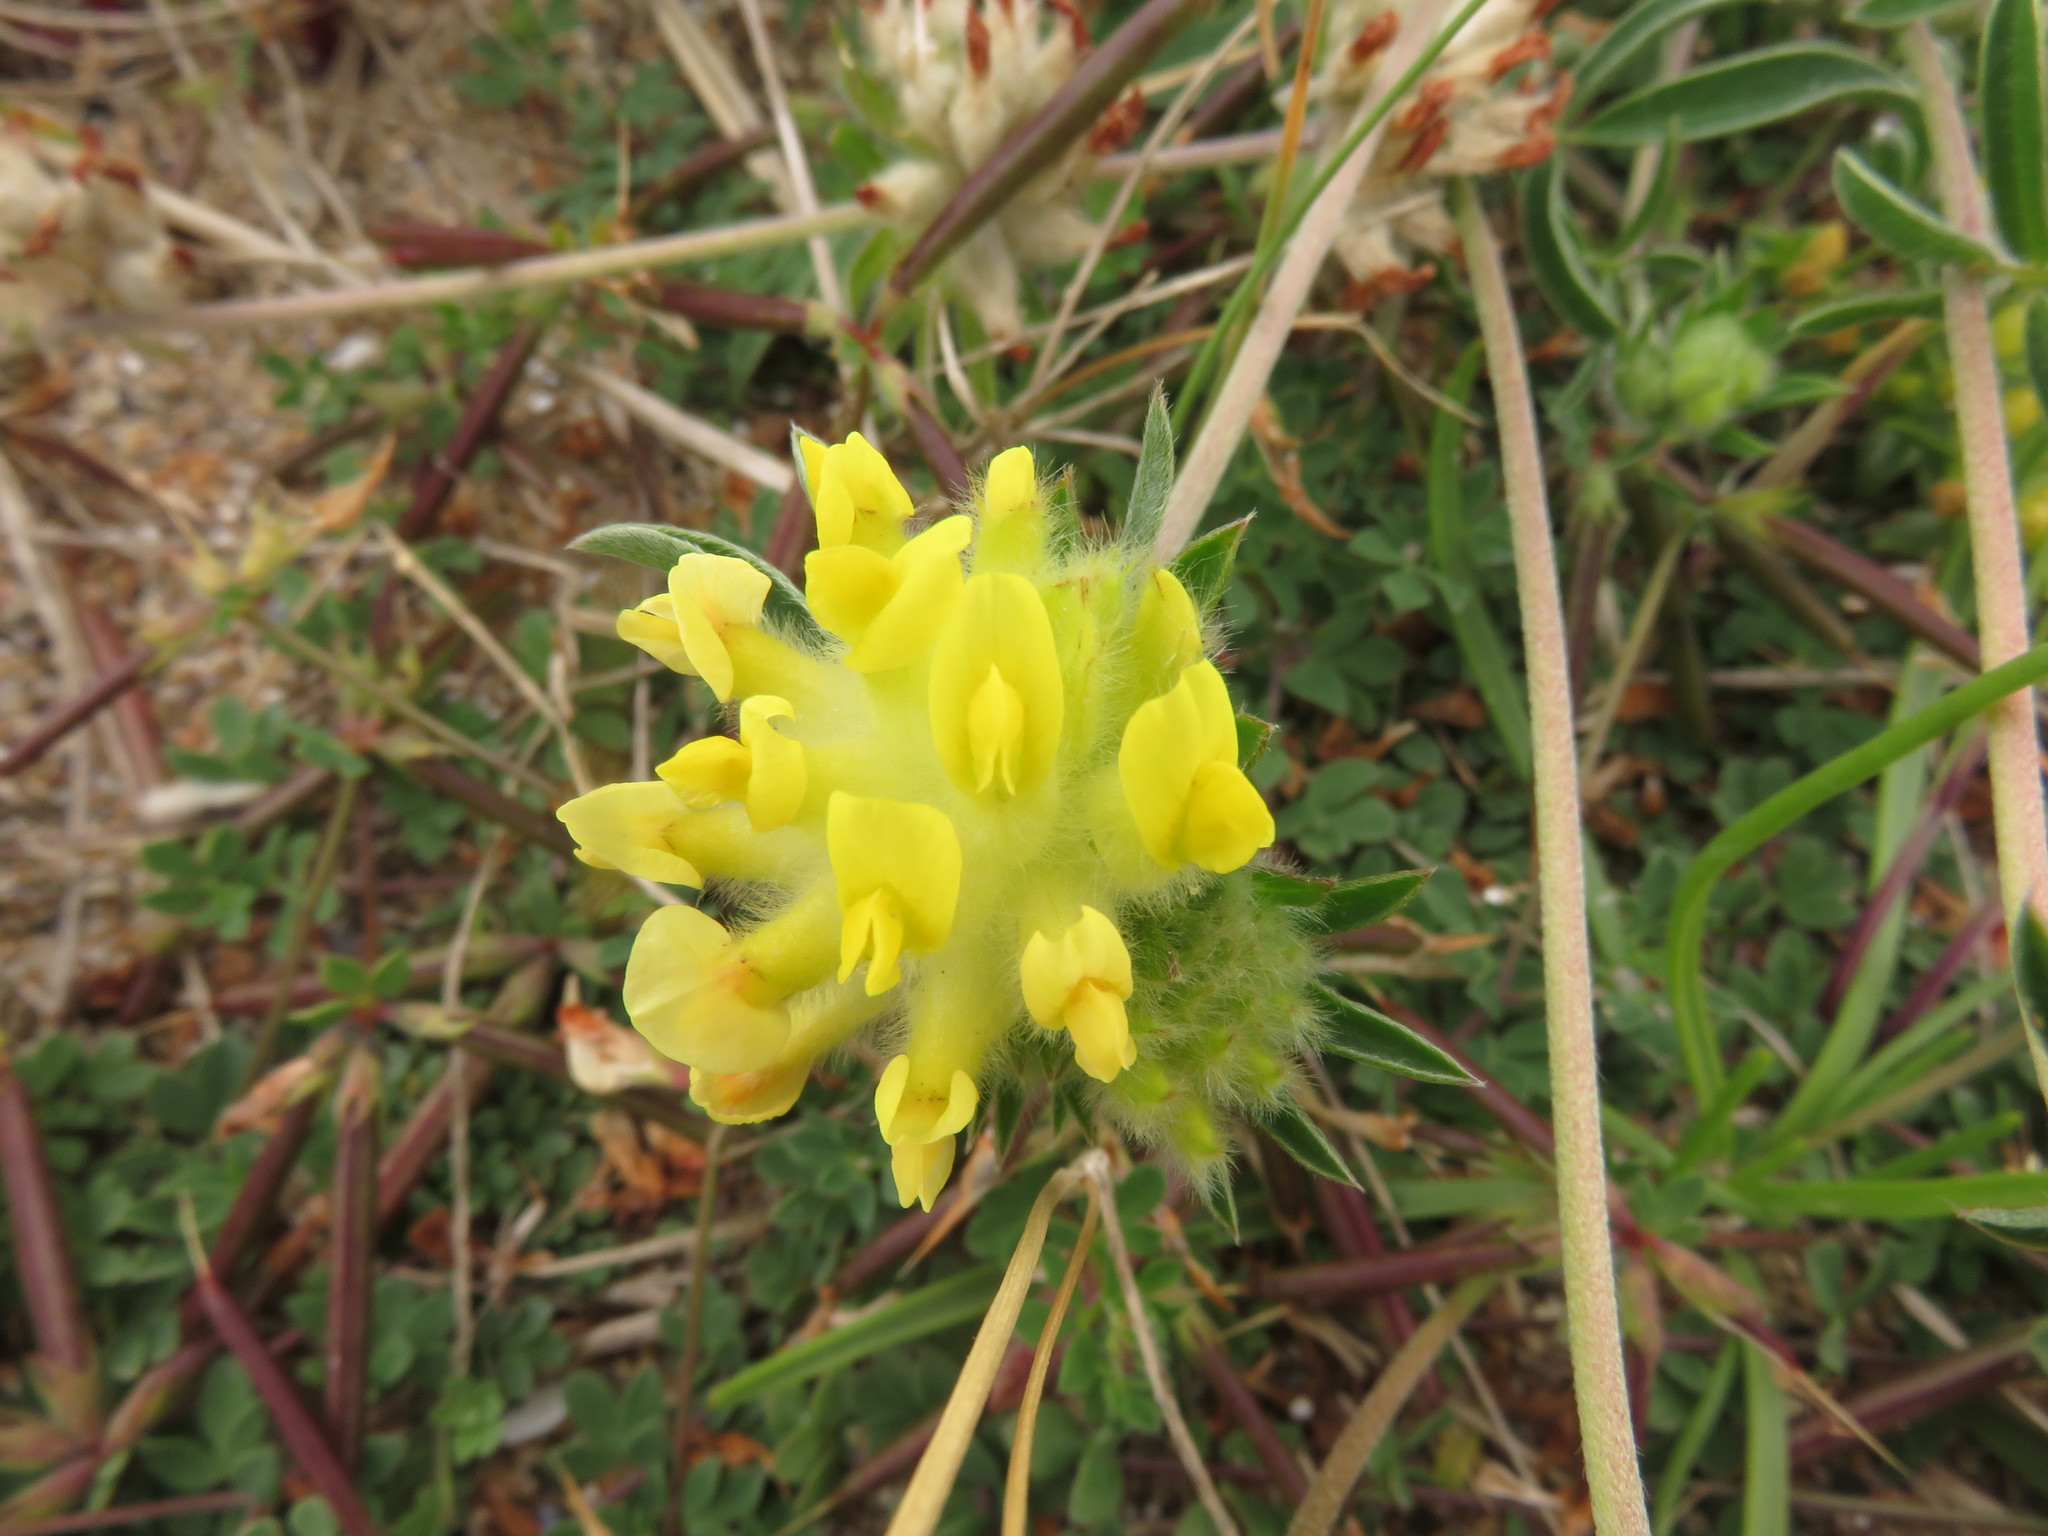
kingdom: Plantae
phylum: Tracheophyta
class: Magnoliopsida
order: Fabales
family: Fabaceae
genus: Anthyllis
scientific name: Anthyllis vulneraria
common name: Kidney vetch
